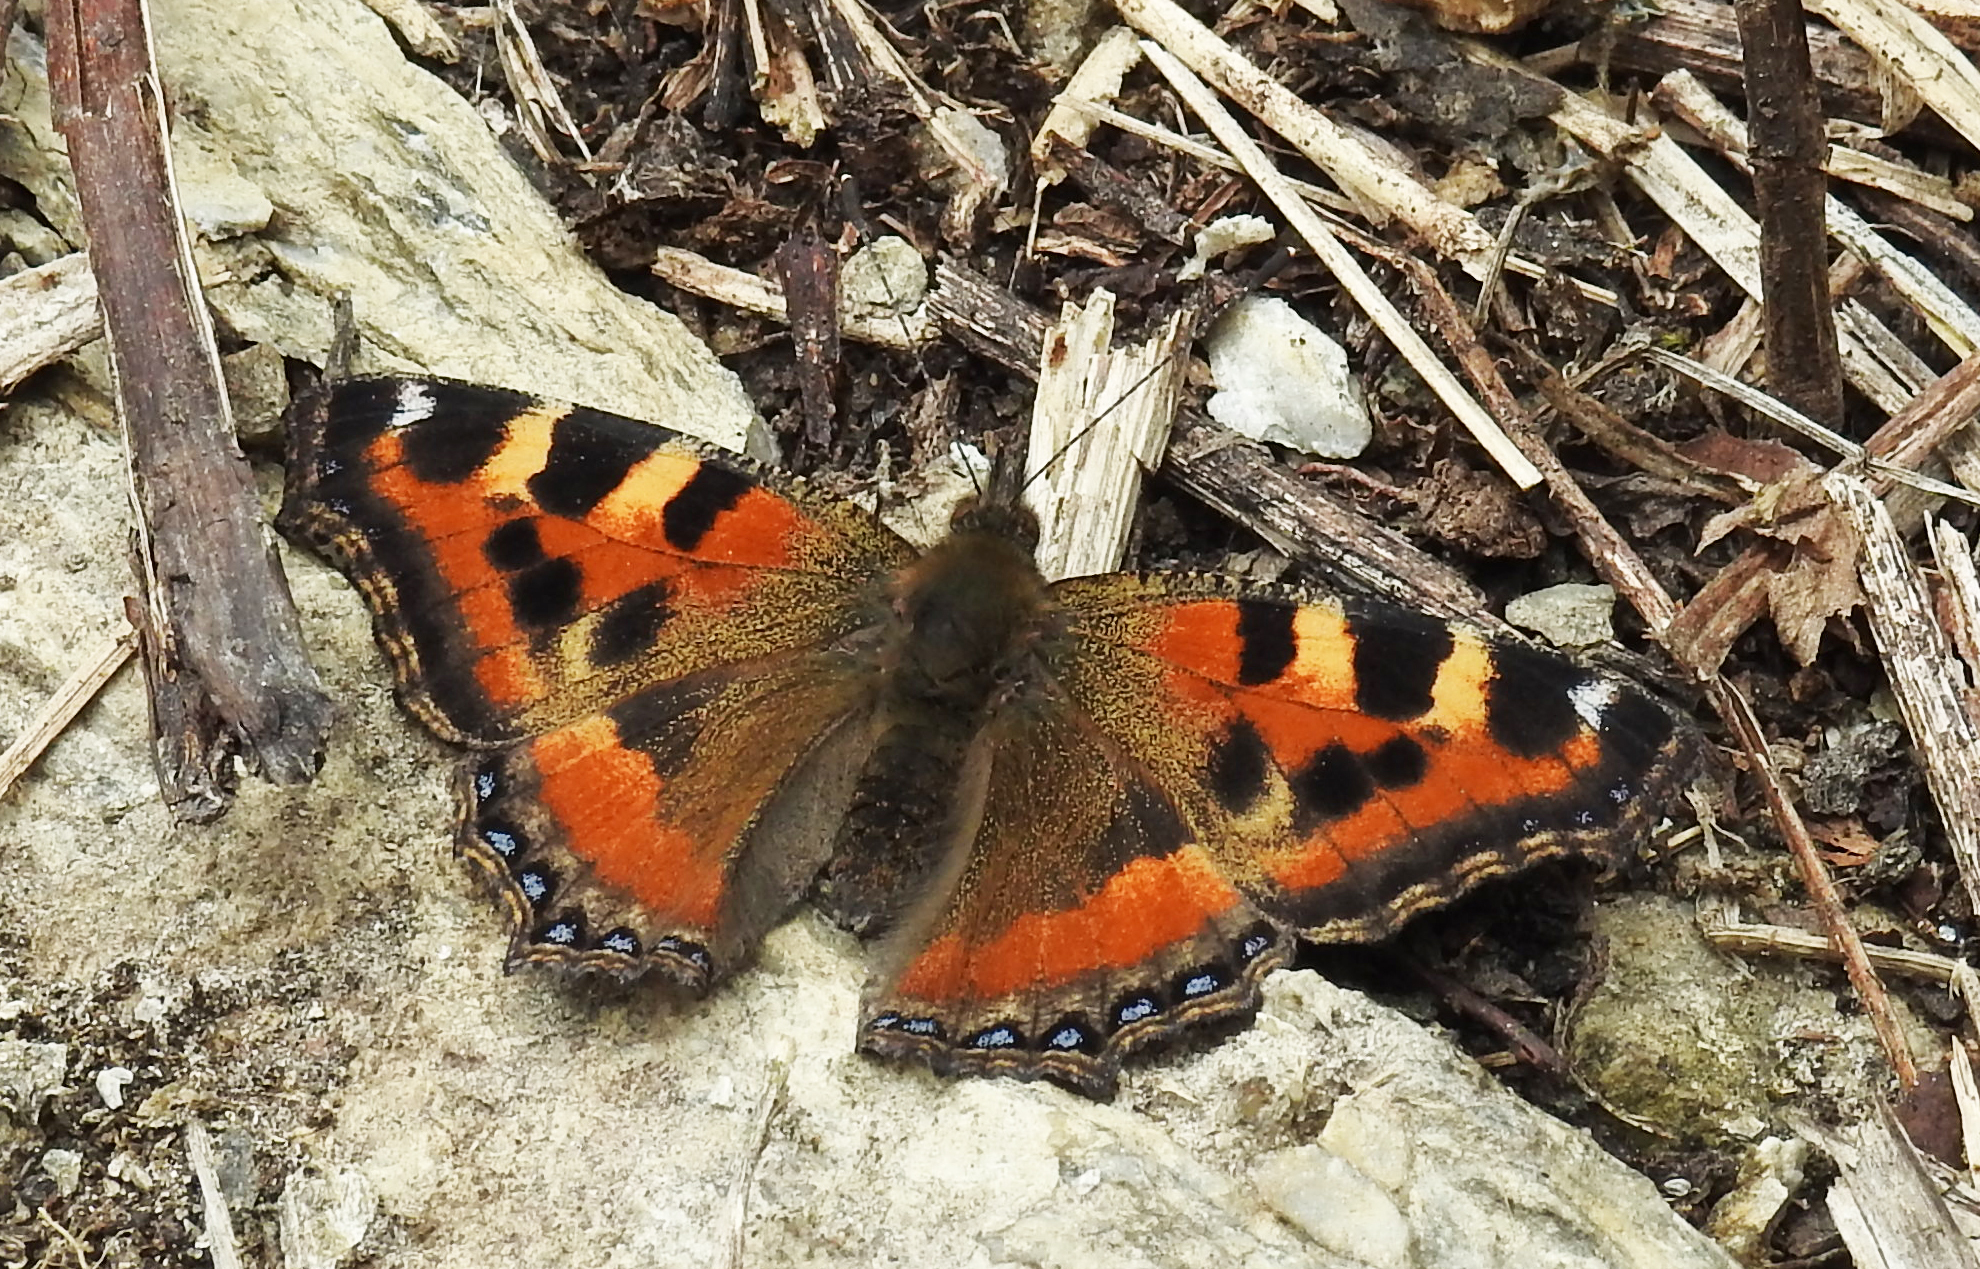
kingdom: Animalia
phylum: Arthropoda
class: Insecta
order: Lepidoptera
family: Nymphalidae
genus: Aglais
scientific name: Aglais caschmirensis
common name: Indian tortoiseshell
